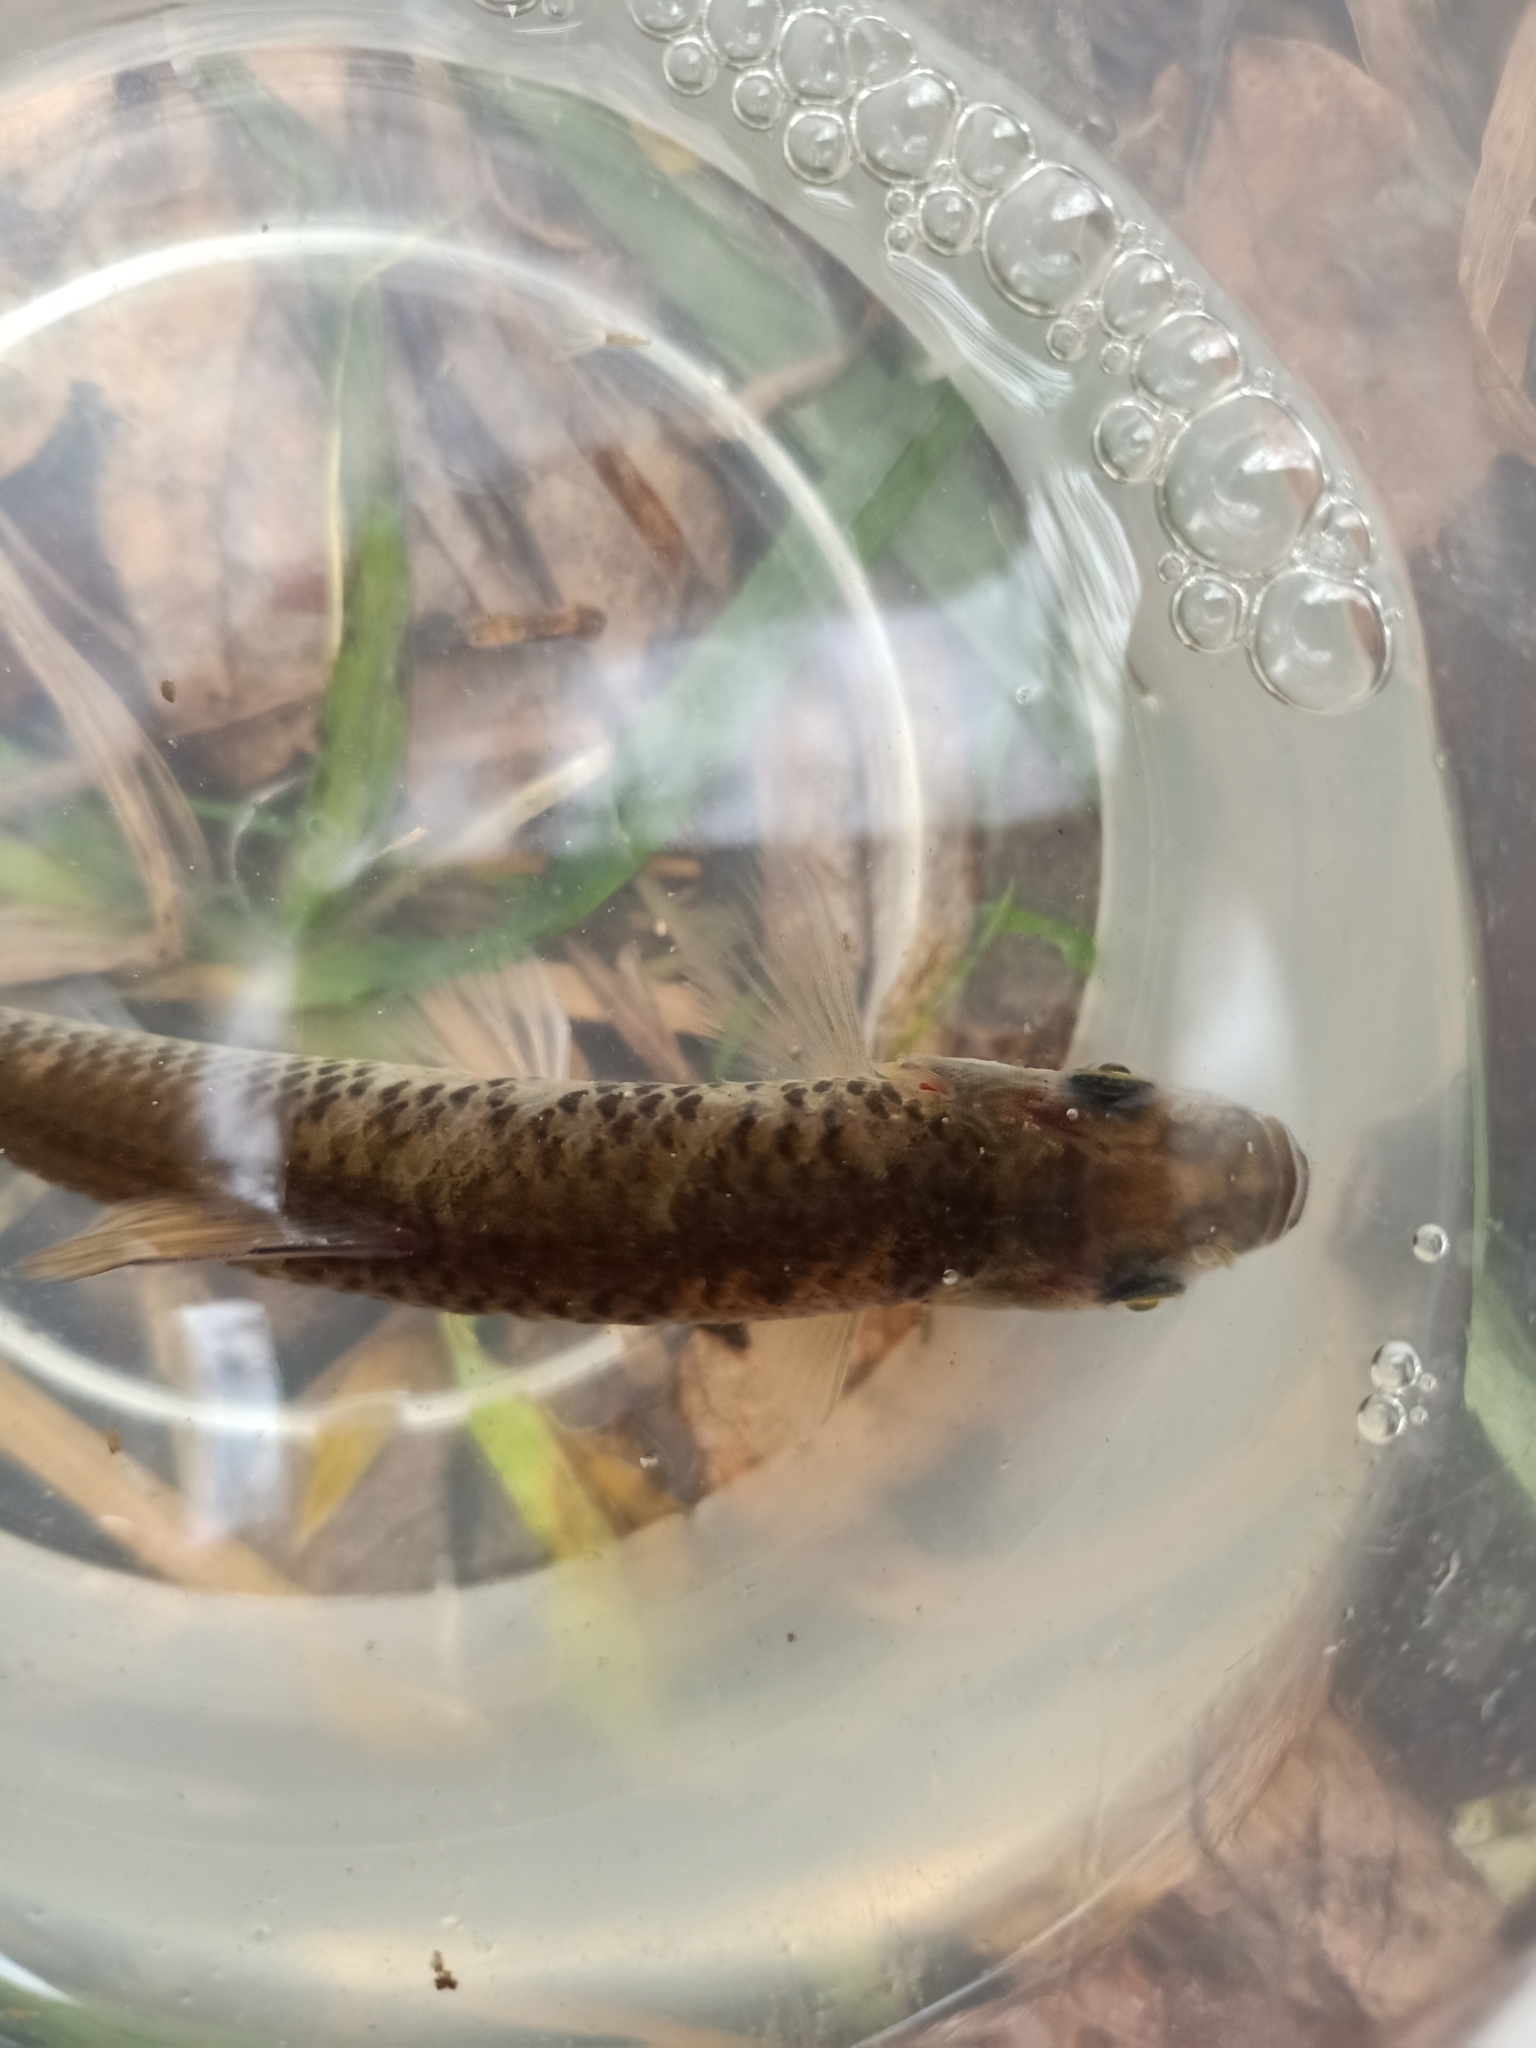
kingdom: Animalia
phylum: Chordata
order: Cypriniformes
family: Cyprinidae
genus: Pseudorasbora
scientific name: Pseudorasbora parva
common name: Topmouth gudgeon
